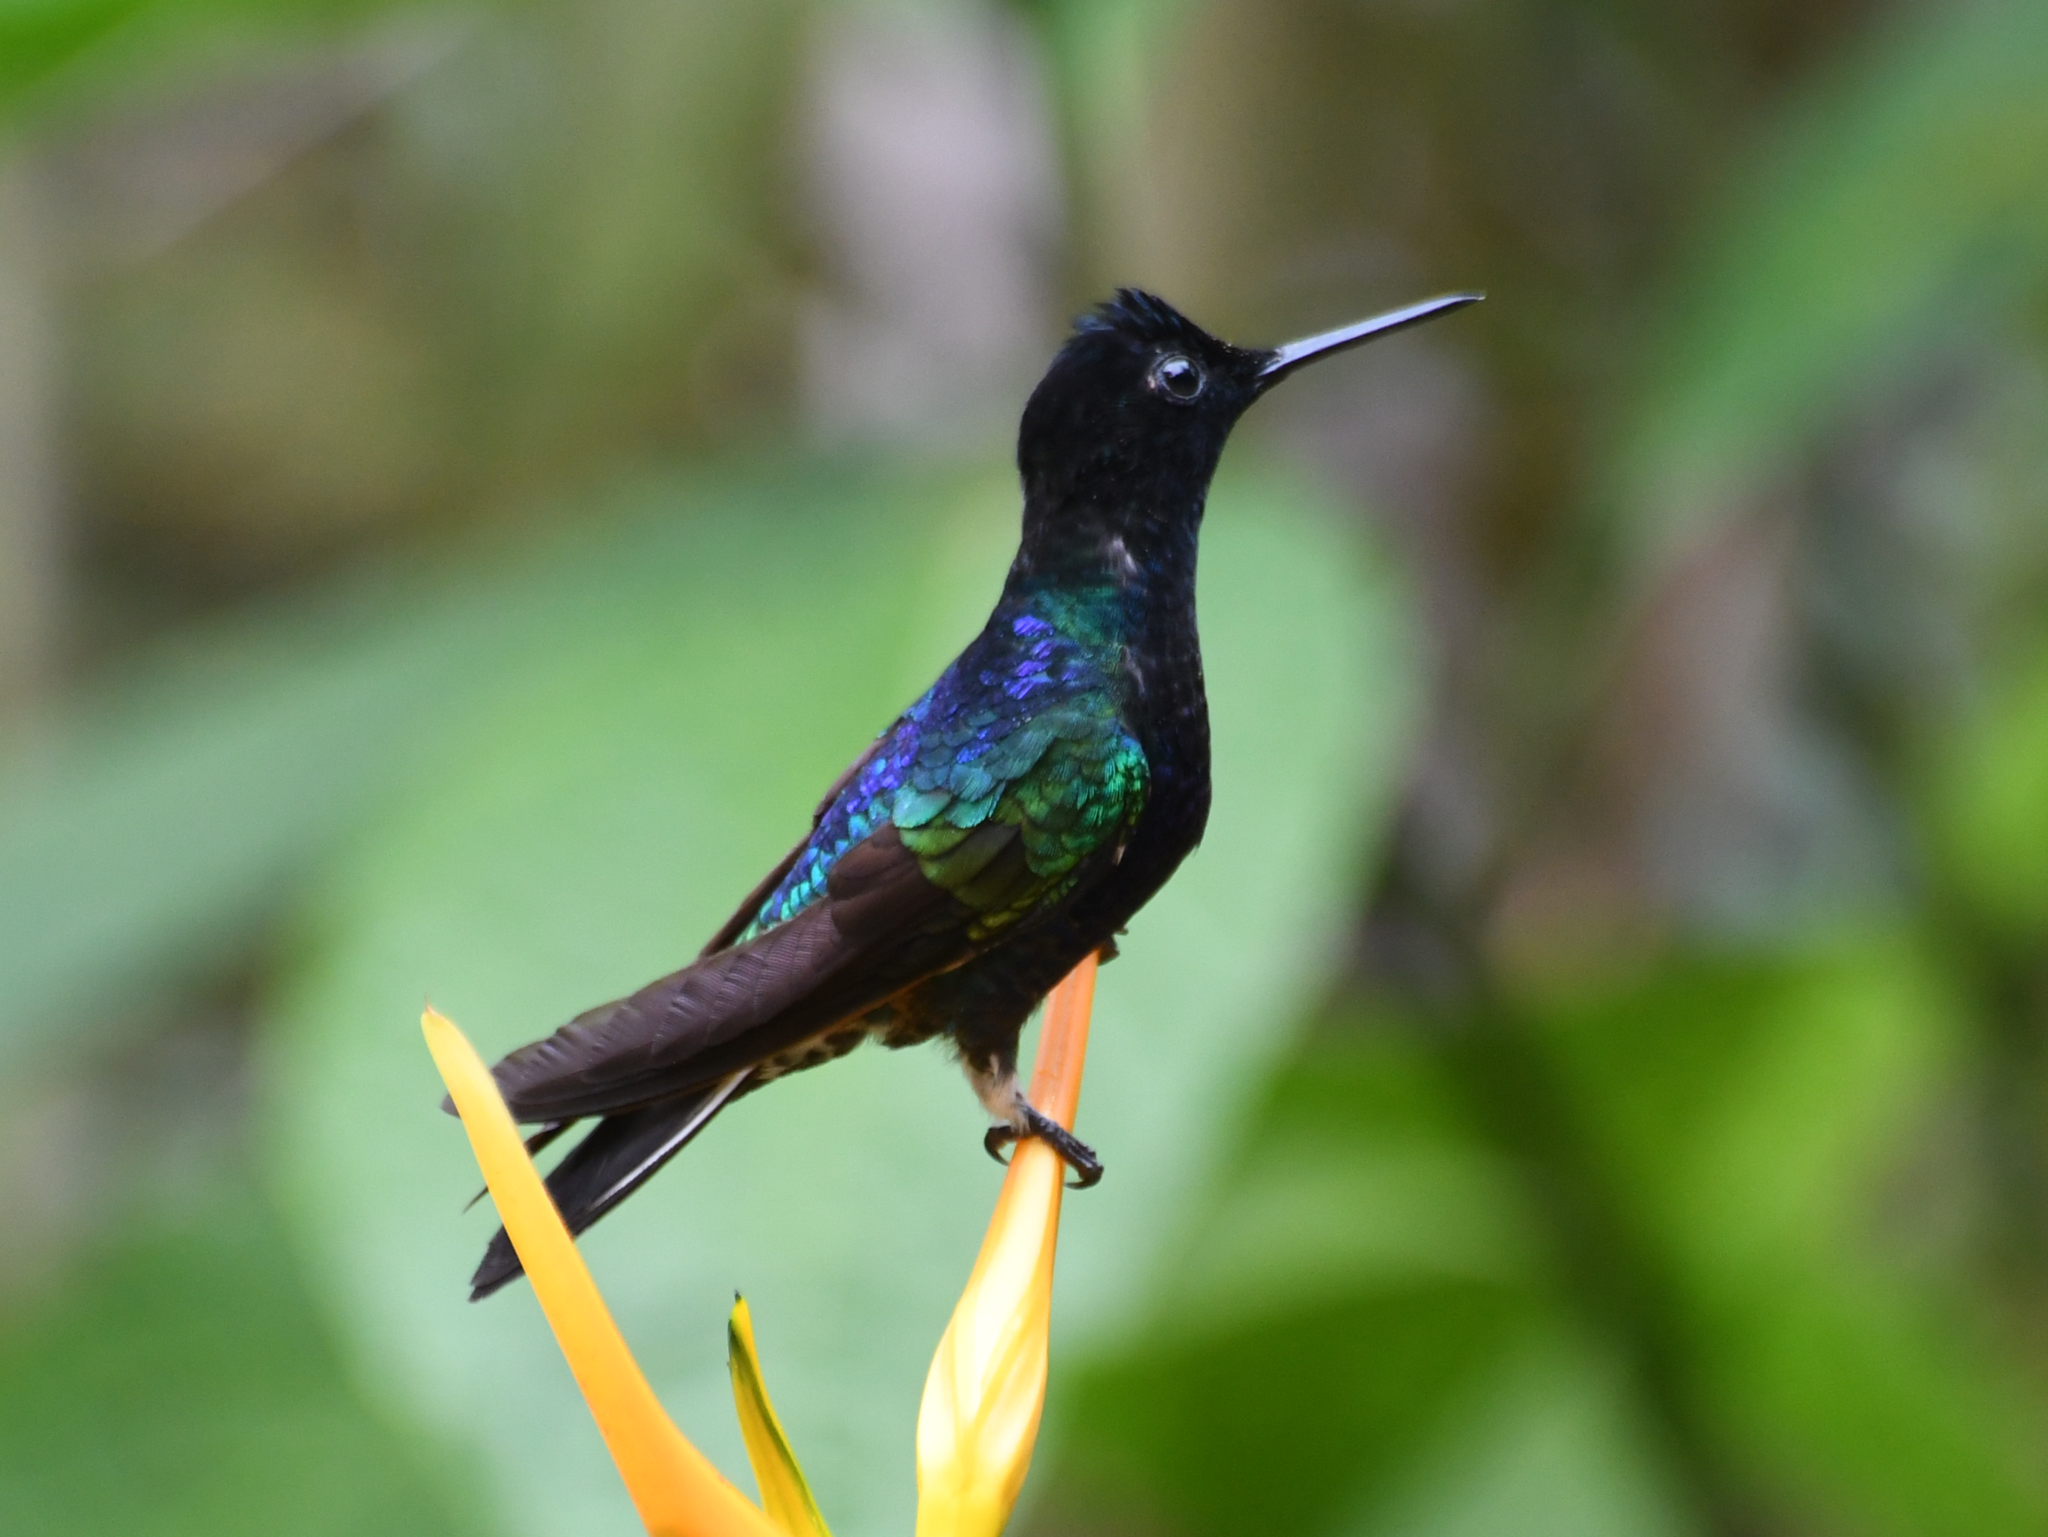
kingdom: Animalia
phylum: Chordata
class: Aves
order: Apodiformes
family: Trochilidae
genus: Boissonneaua
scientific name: Boissonneaua jardini
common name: Velvet-purple coronet
